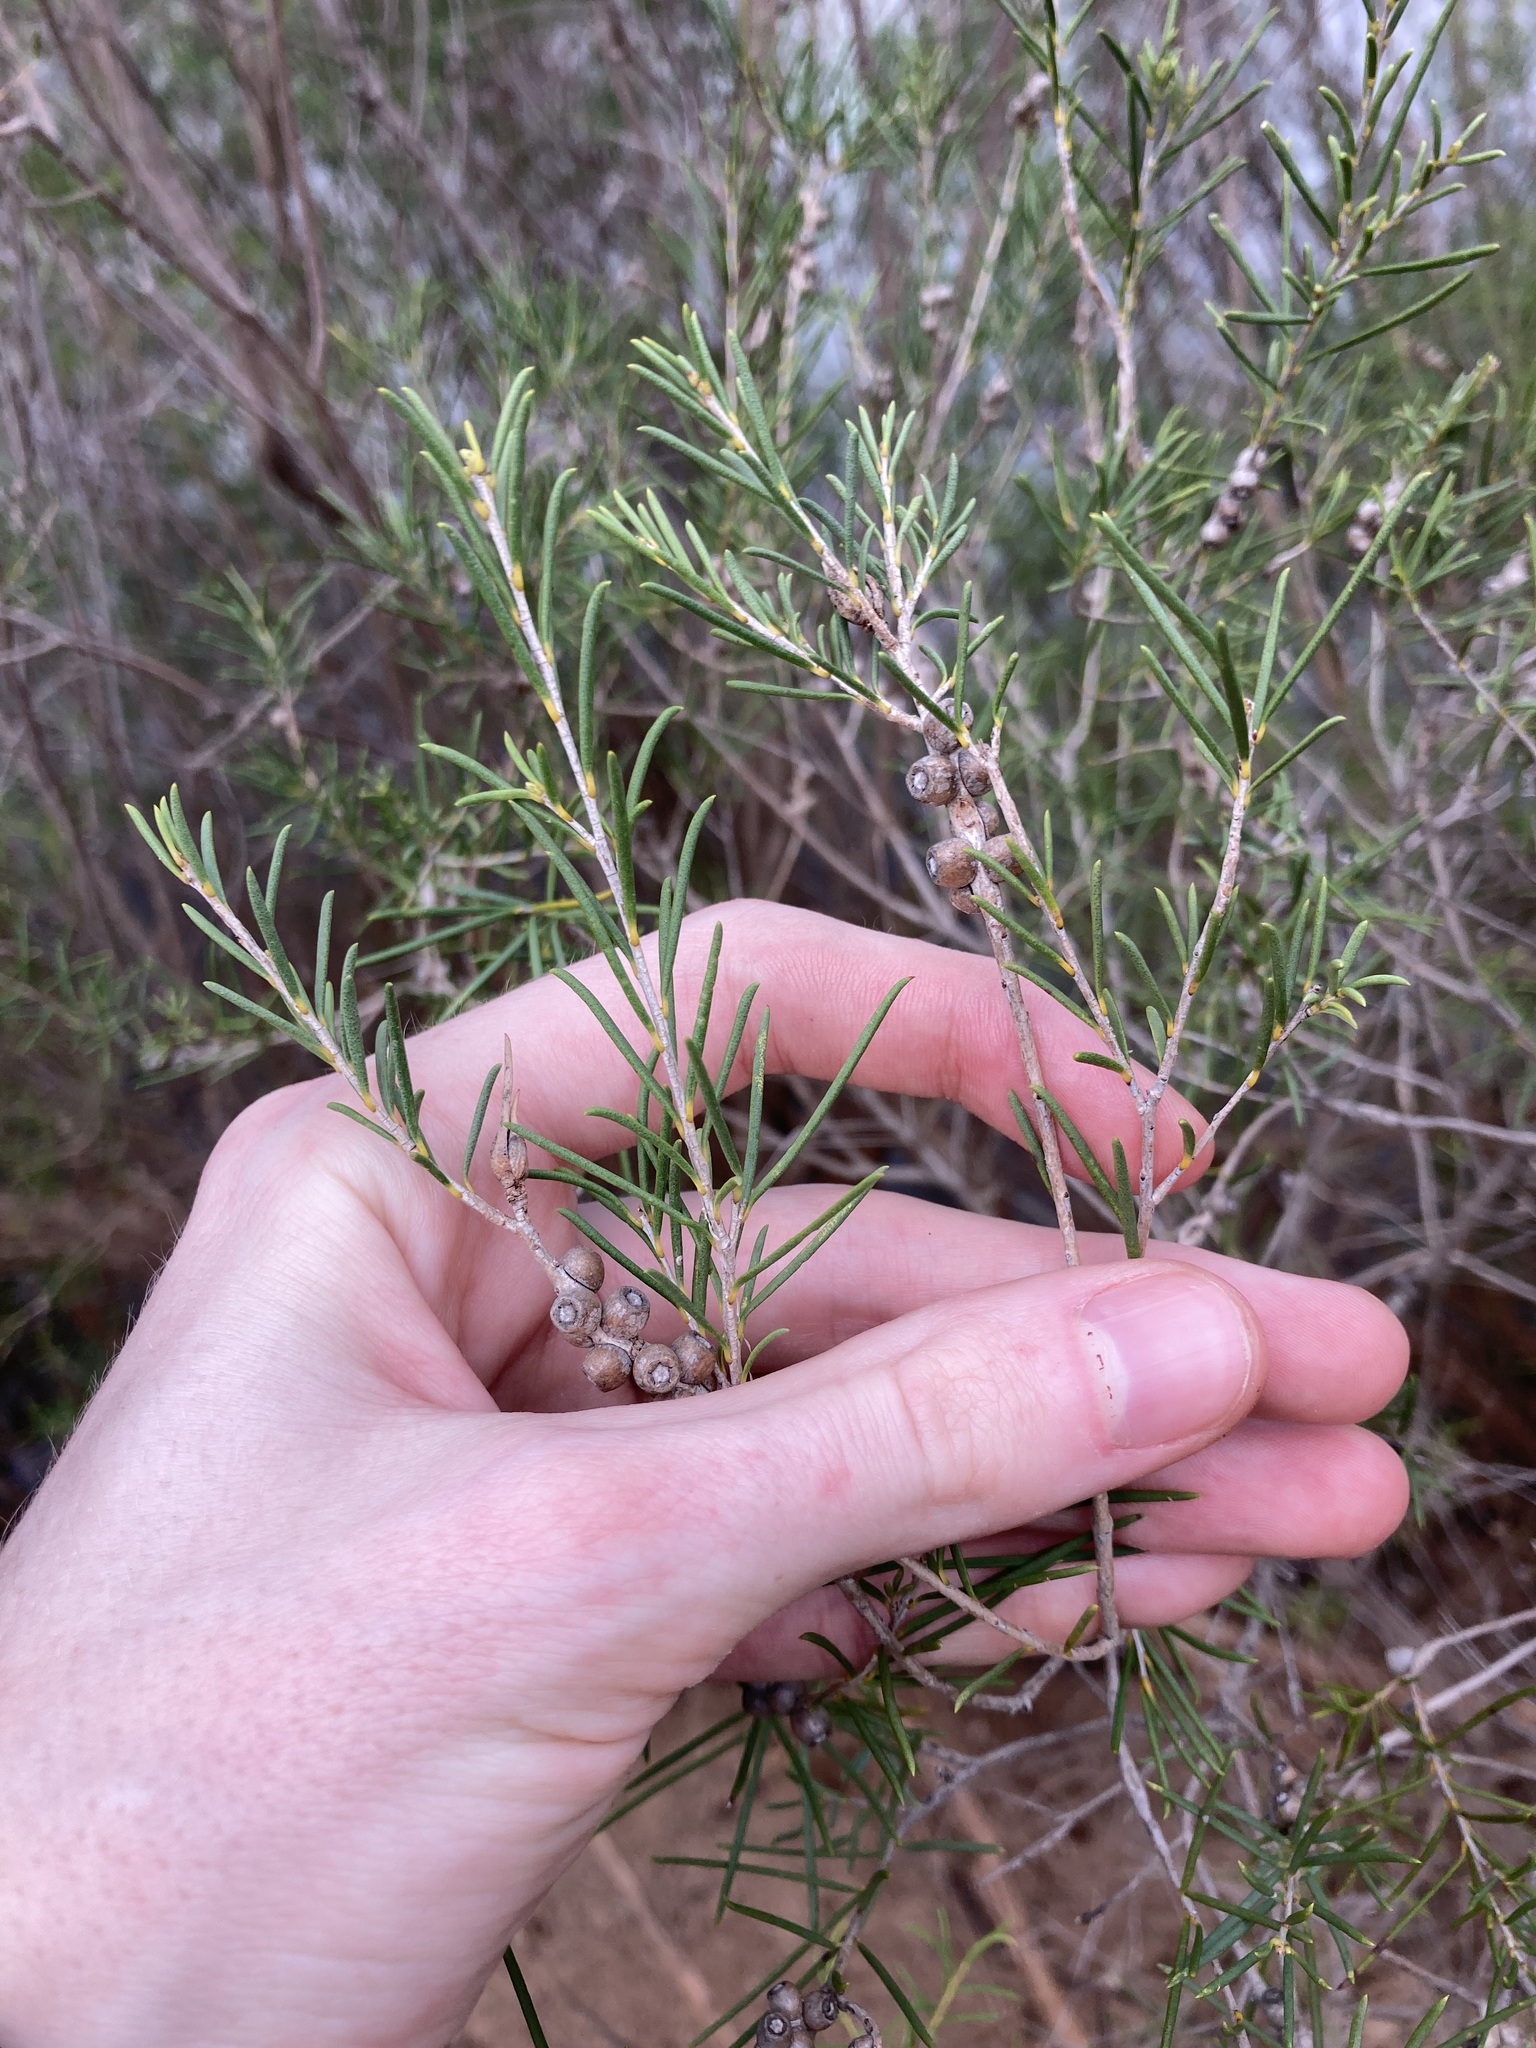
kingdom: Plantae
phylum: Tracheophyta
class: Magnoliopsida
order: Myrtales
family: Myrtaceae
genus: Melaleuca
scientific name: Melaleuca rhaphiophylla
